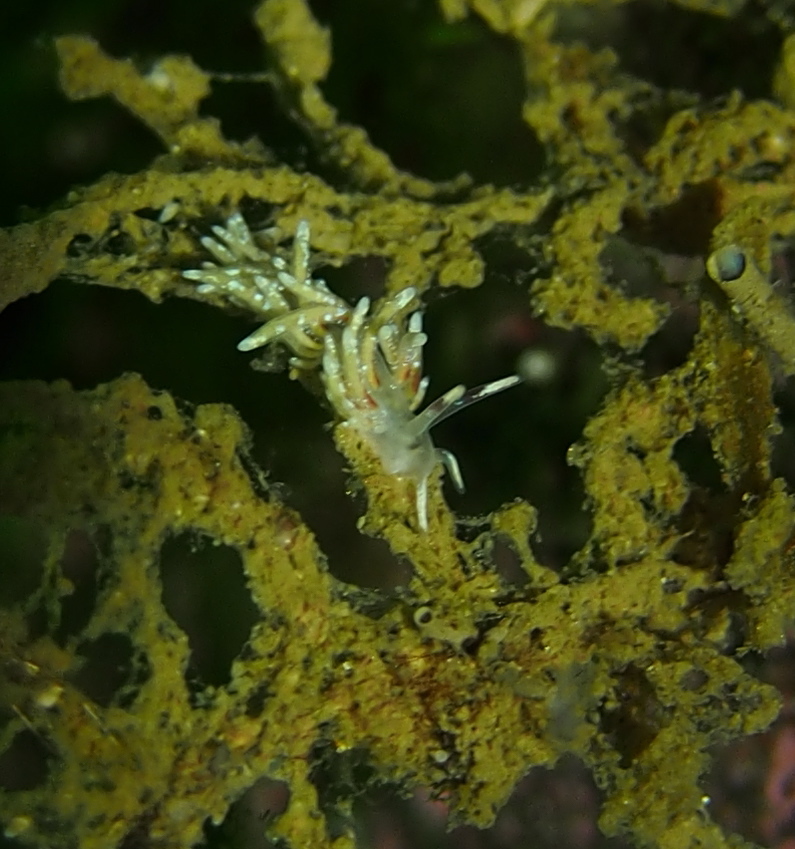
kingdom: Animalia
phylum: Mollusca
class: Gastropoda
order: Nudibranchia
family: Trinchesiidae
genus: Rubramoena
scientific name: Rubramoena rubescens
